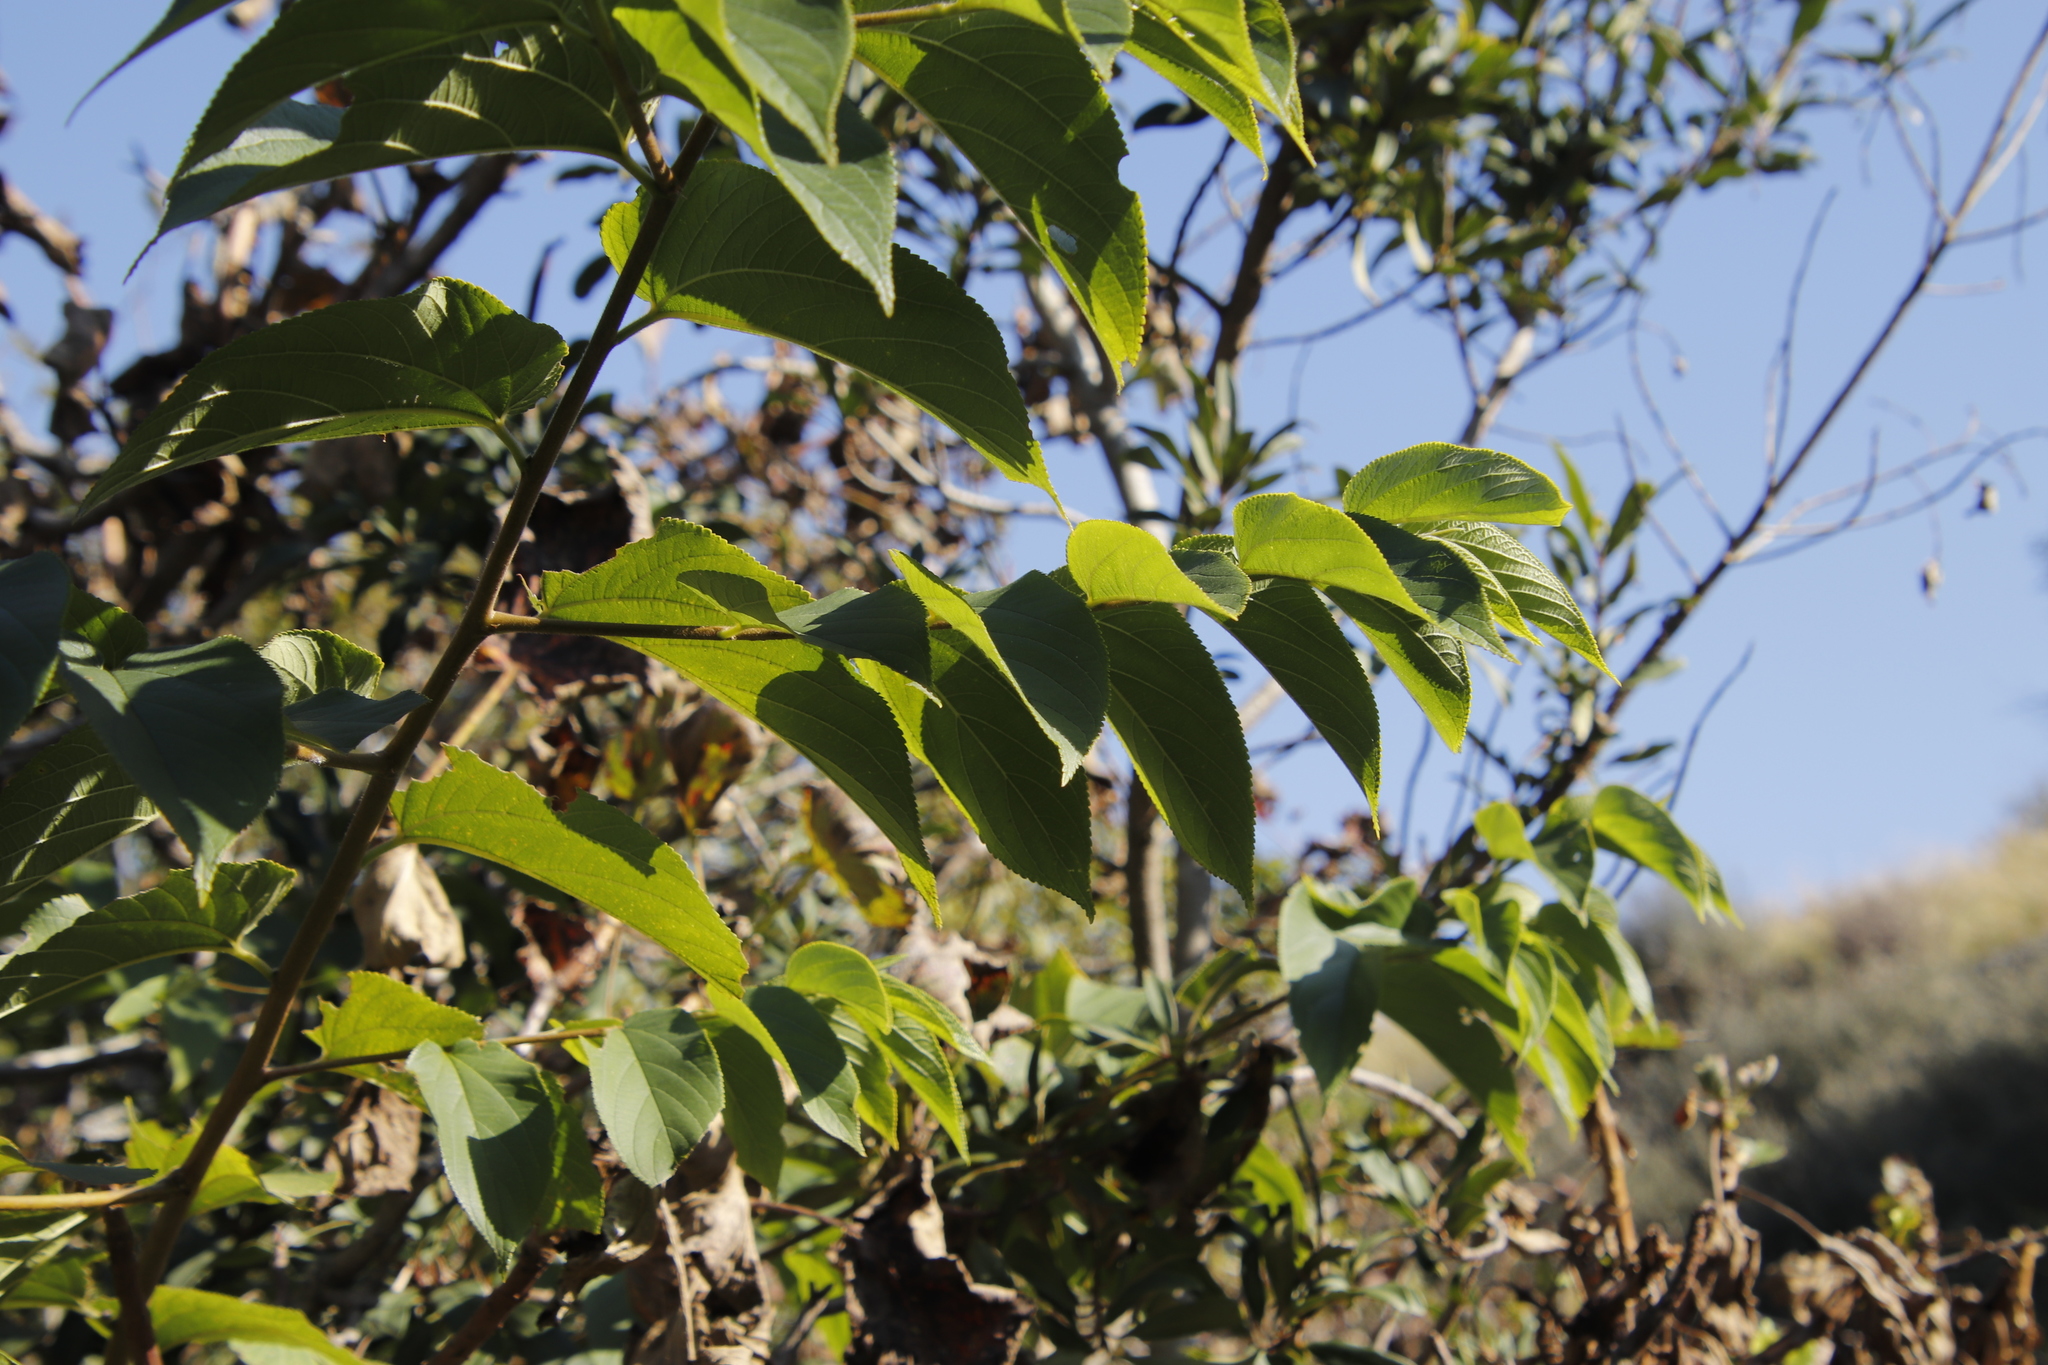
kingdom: Plantae
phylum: Tracheophyta
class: Magnoliopsida
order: Rosales
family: Cannabaceae
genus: Trema
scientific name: Trema orientale
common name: Indian charcoal tree
